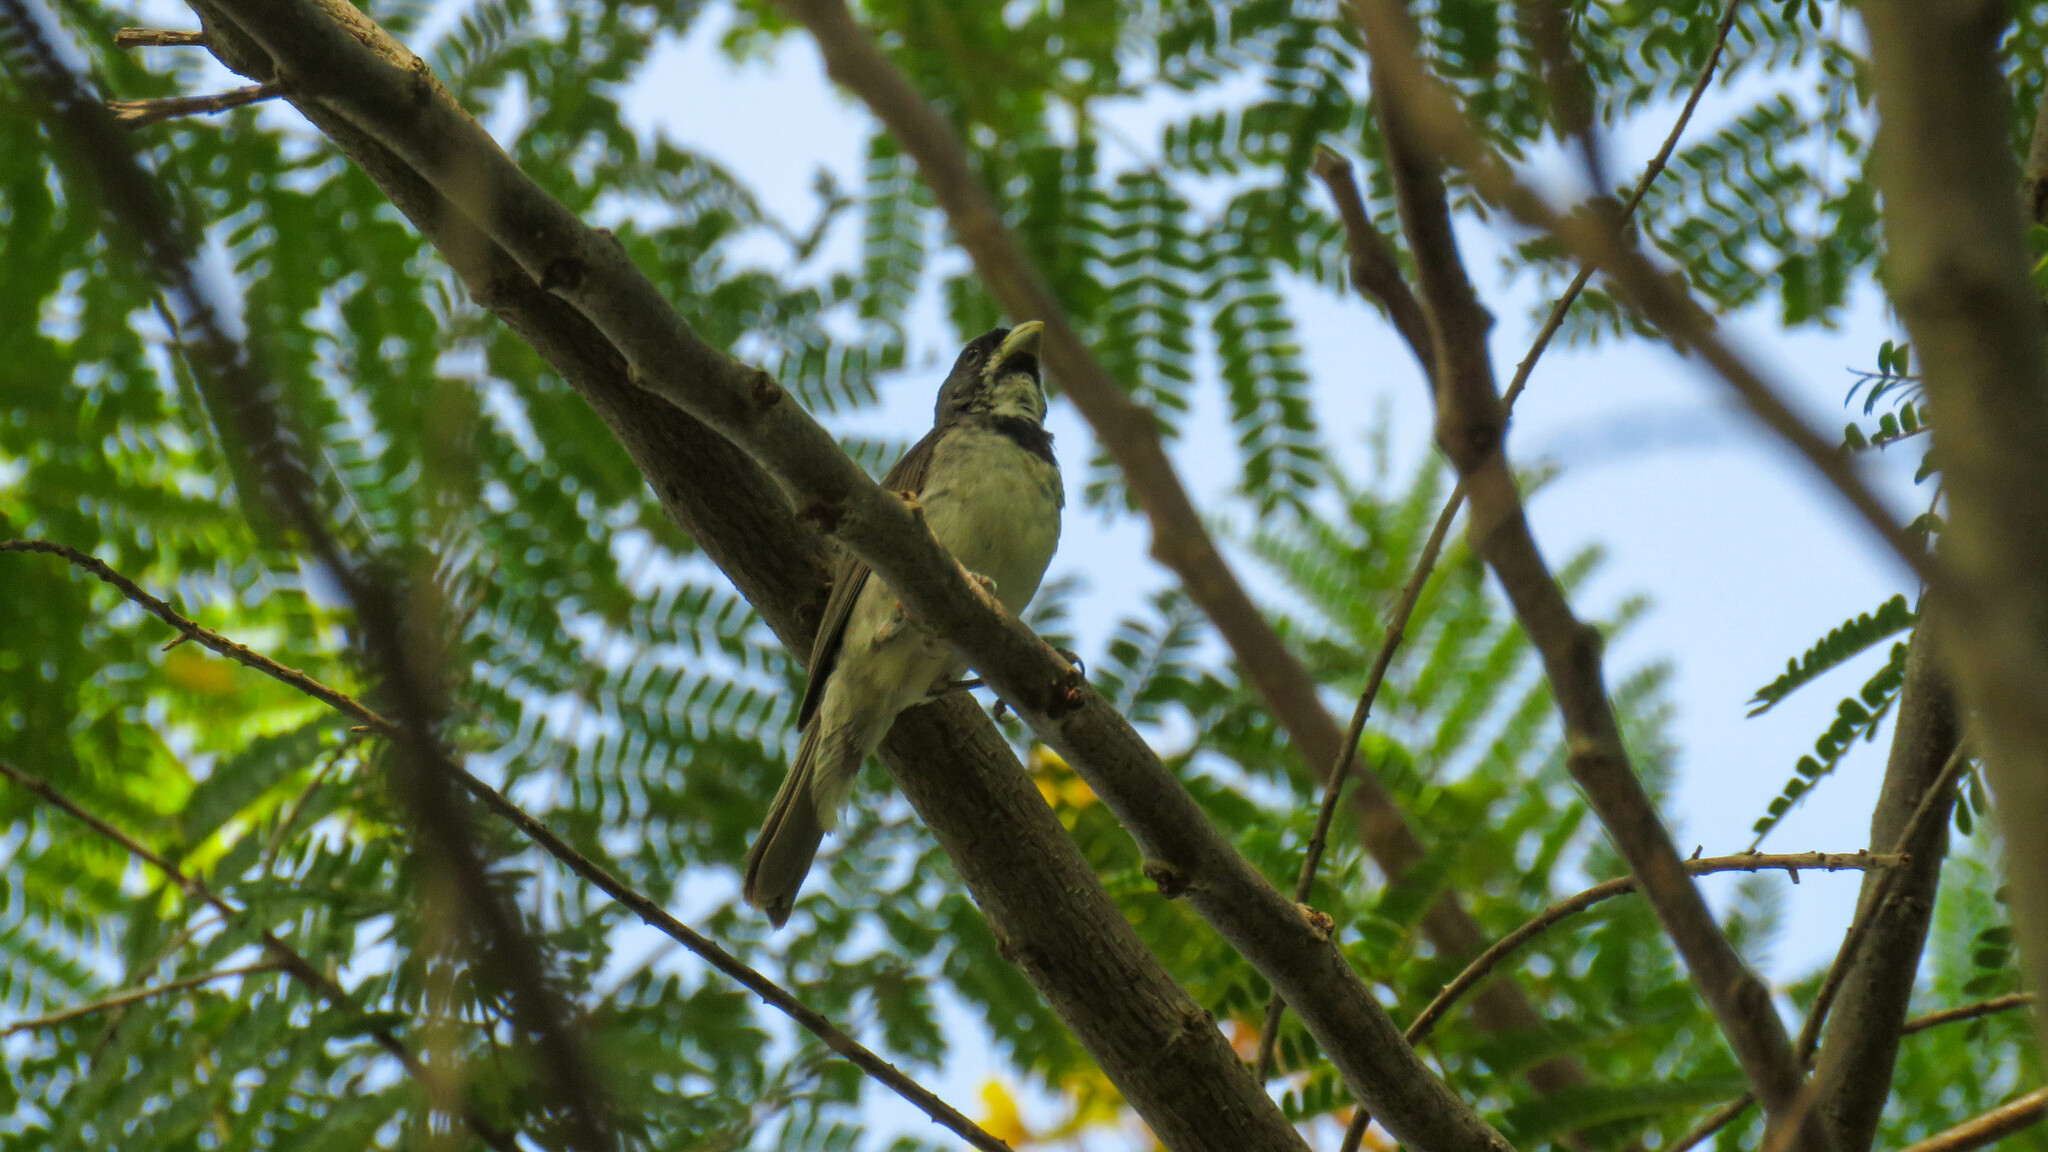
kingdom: Animalia
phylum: Chordata
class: Aves
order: Passeriformes
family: Thraupidae
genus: Sporophila
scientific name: Sporophila caerulescens
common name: Double-collared seedeater
